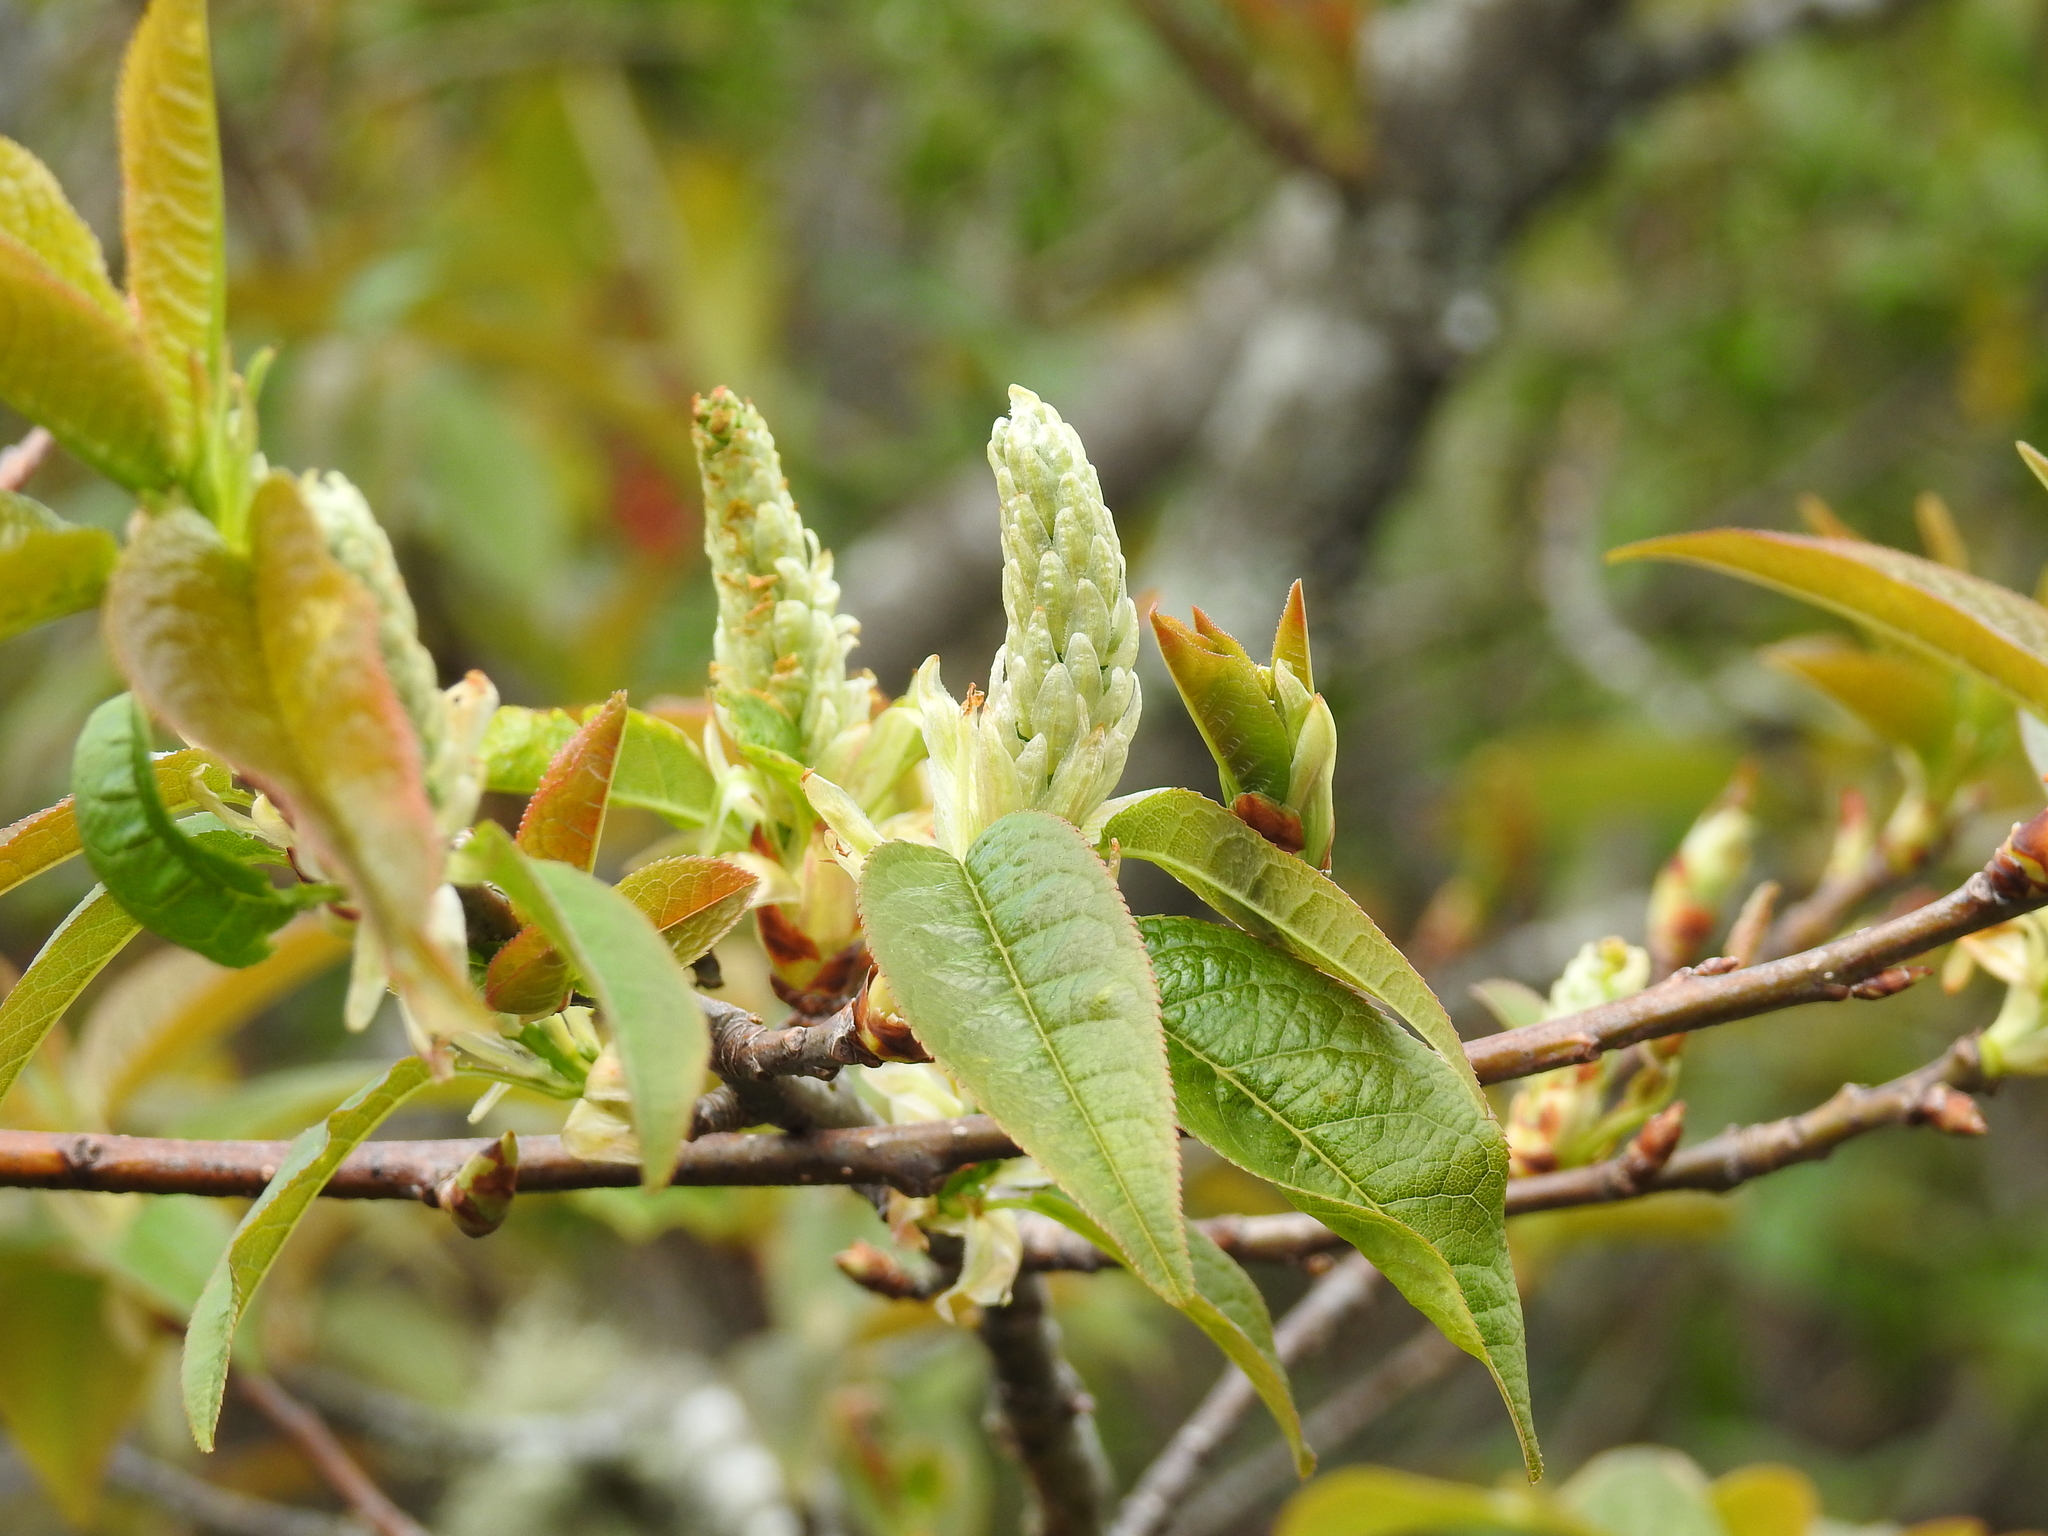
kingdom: Plantae
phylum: Tracheophyta
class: Magnoliopsida
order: Rosales
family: Rosaceae
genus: Prunus
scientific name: Prunus obtusata
